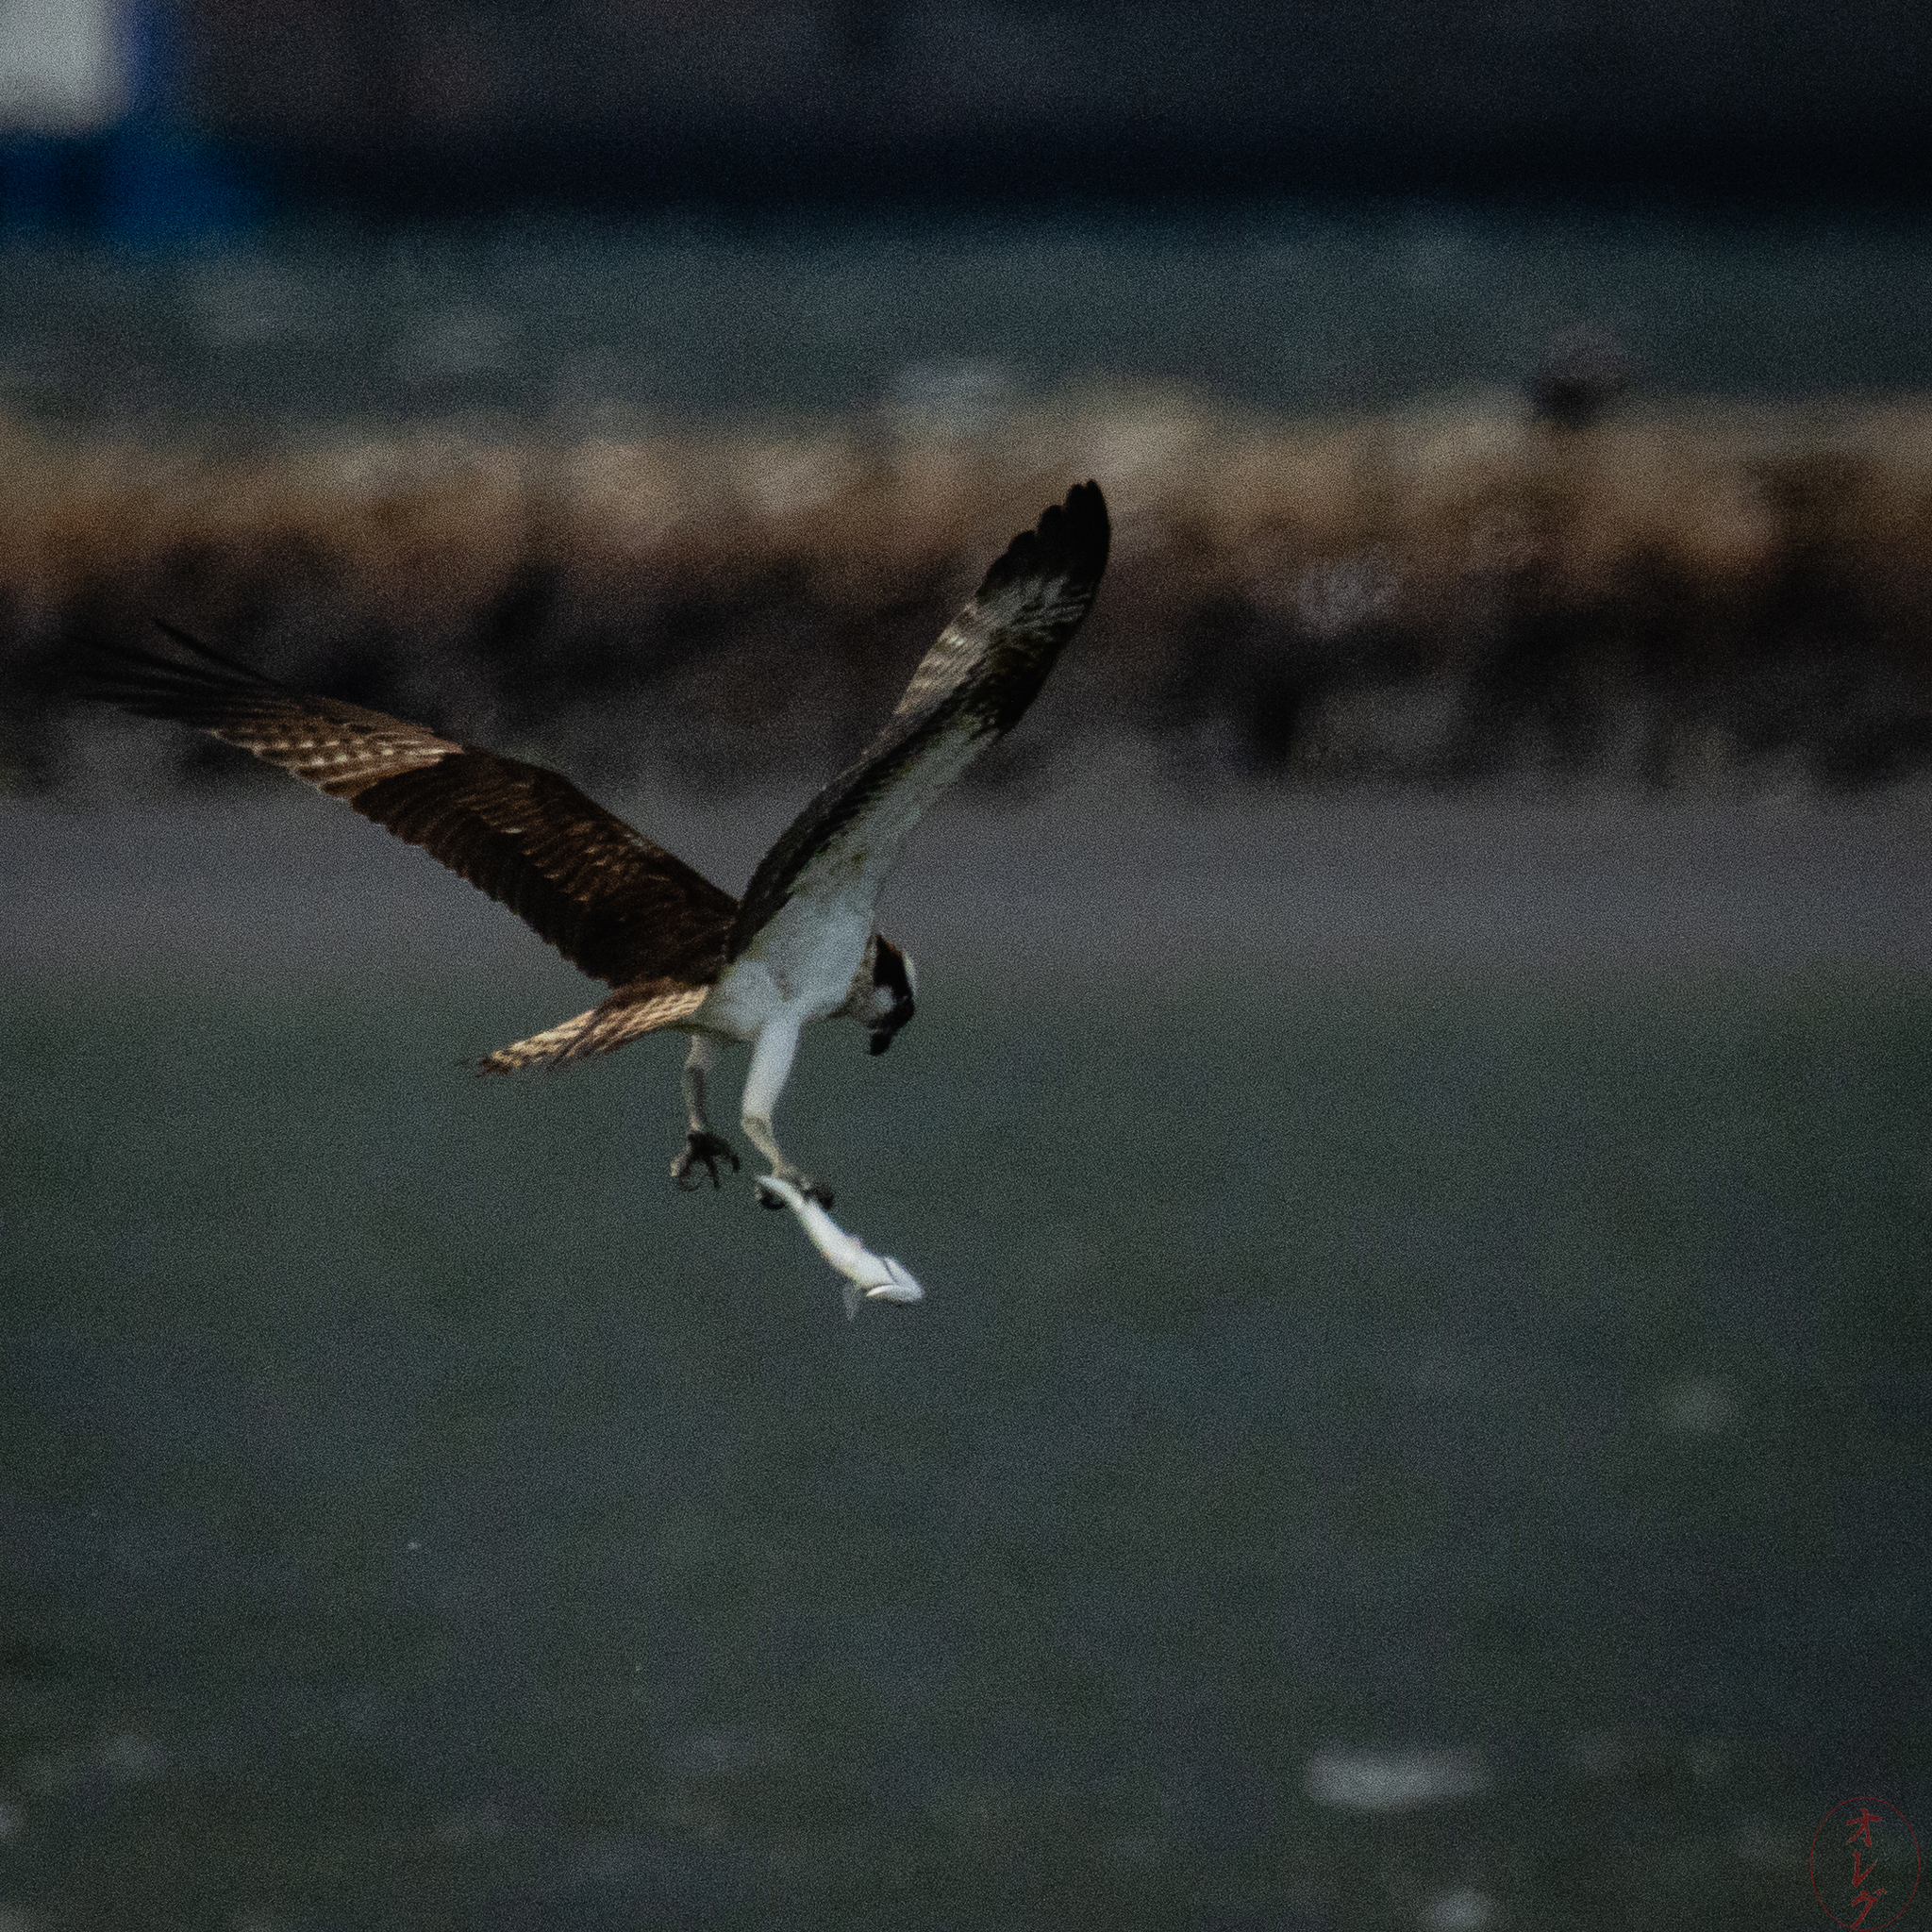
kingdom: Animalia
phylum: Chordata
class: Aves
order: Accipitriformes
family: Pandionidae
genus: Pandion
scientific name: Pandion haliaetus
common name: Osprey
